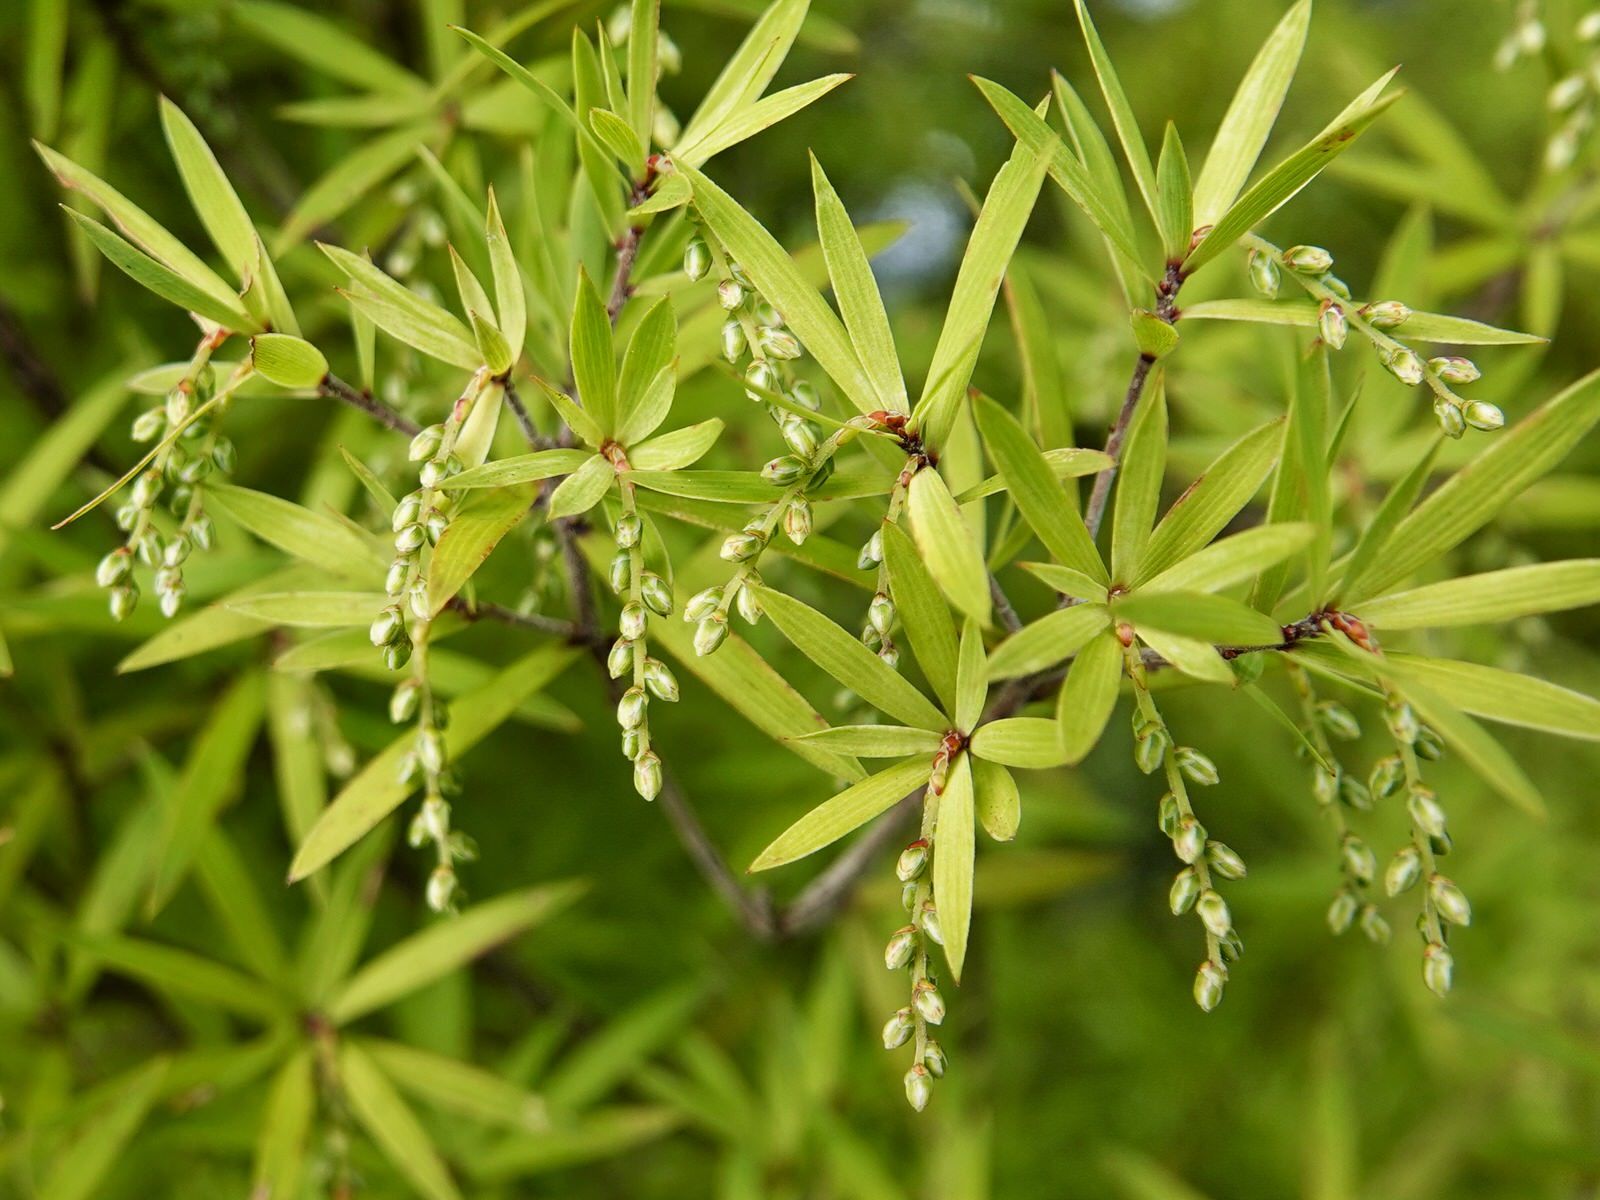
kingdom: Plantae
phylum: Tracheophyta
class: Magnoliopsida
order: Ericales
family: Ericaceae
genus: Leucopogon
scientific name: Leucopogon fasciculatus
